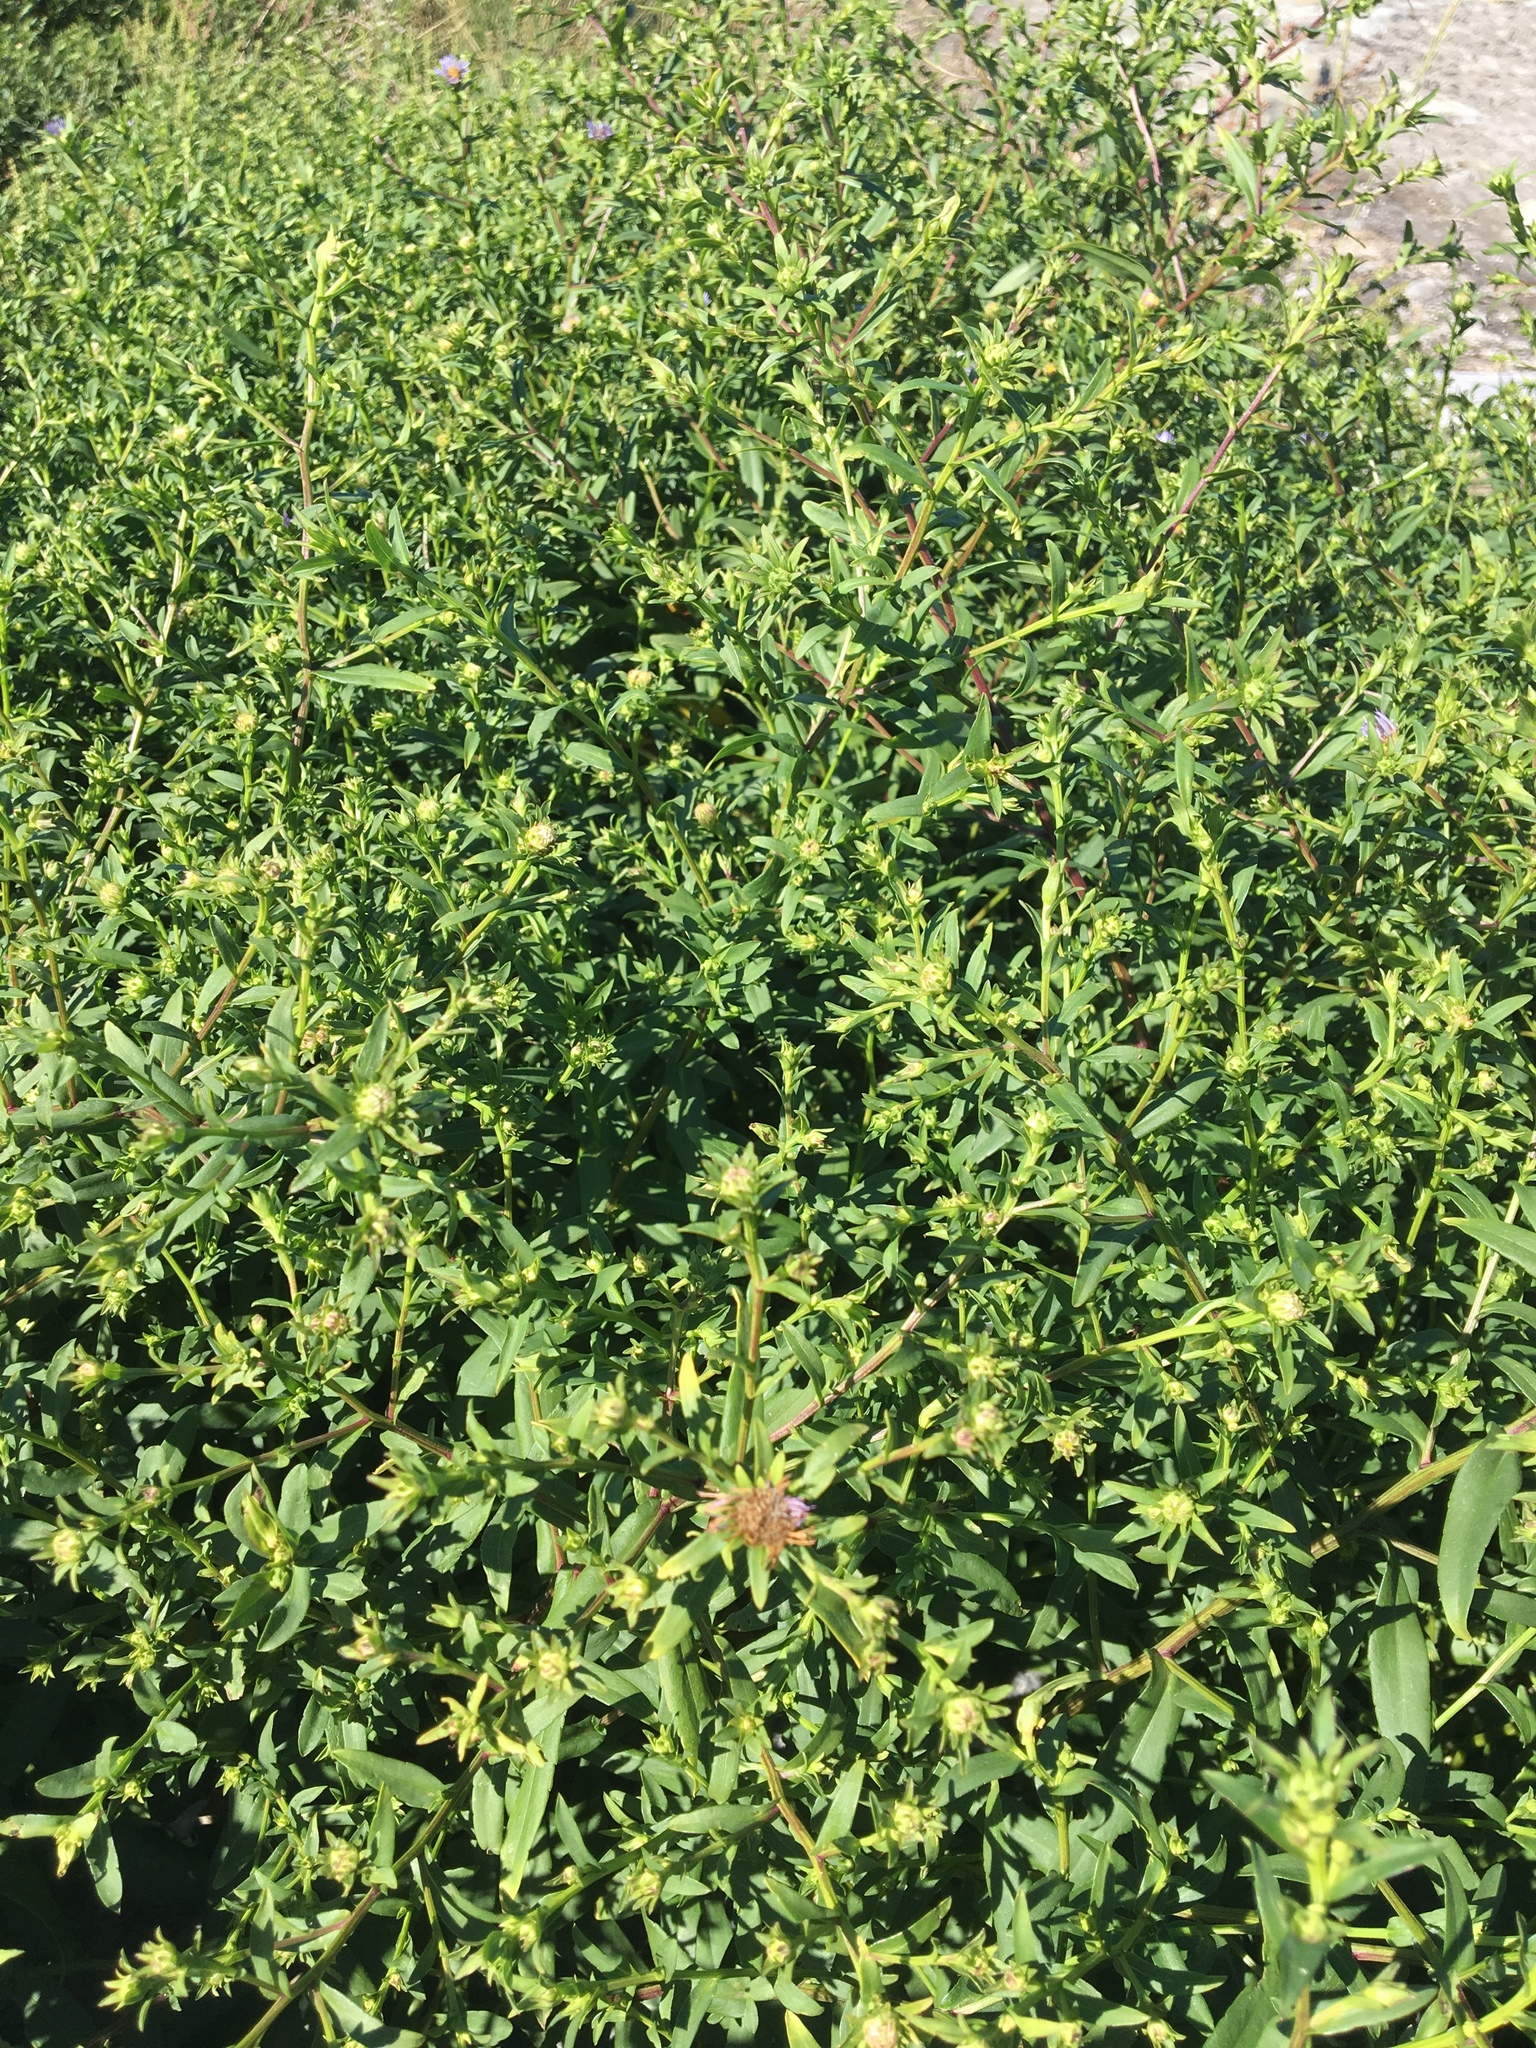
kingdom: Plantae
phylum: Tracheophyta
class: Magnoliopsida
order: Asterales
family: Asteraceae
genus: Symphyotrichum
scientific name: Symphyotrichum novi-belgii
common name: Michaelmas daisy
